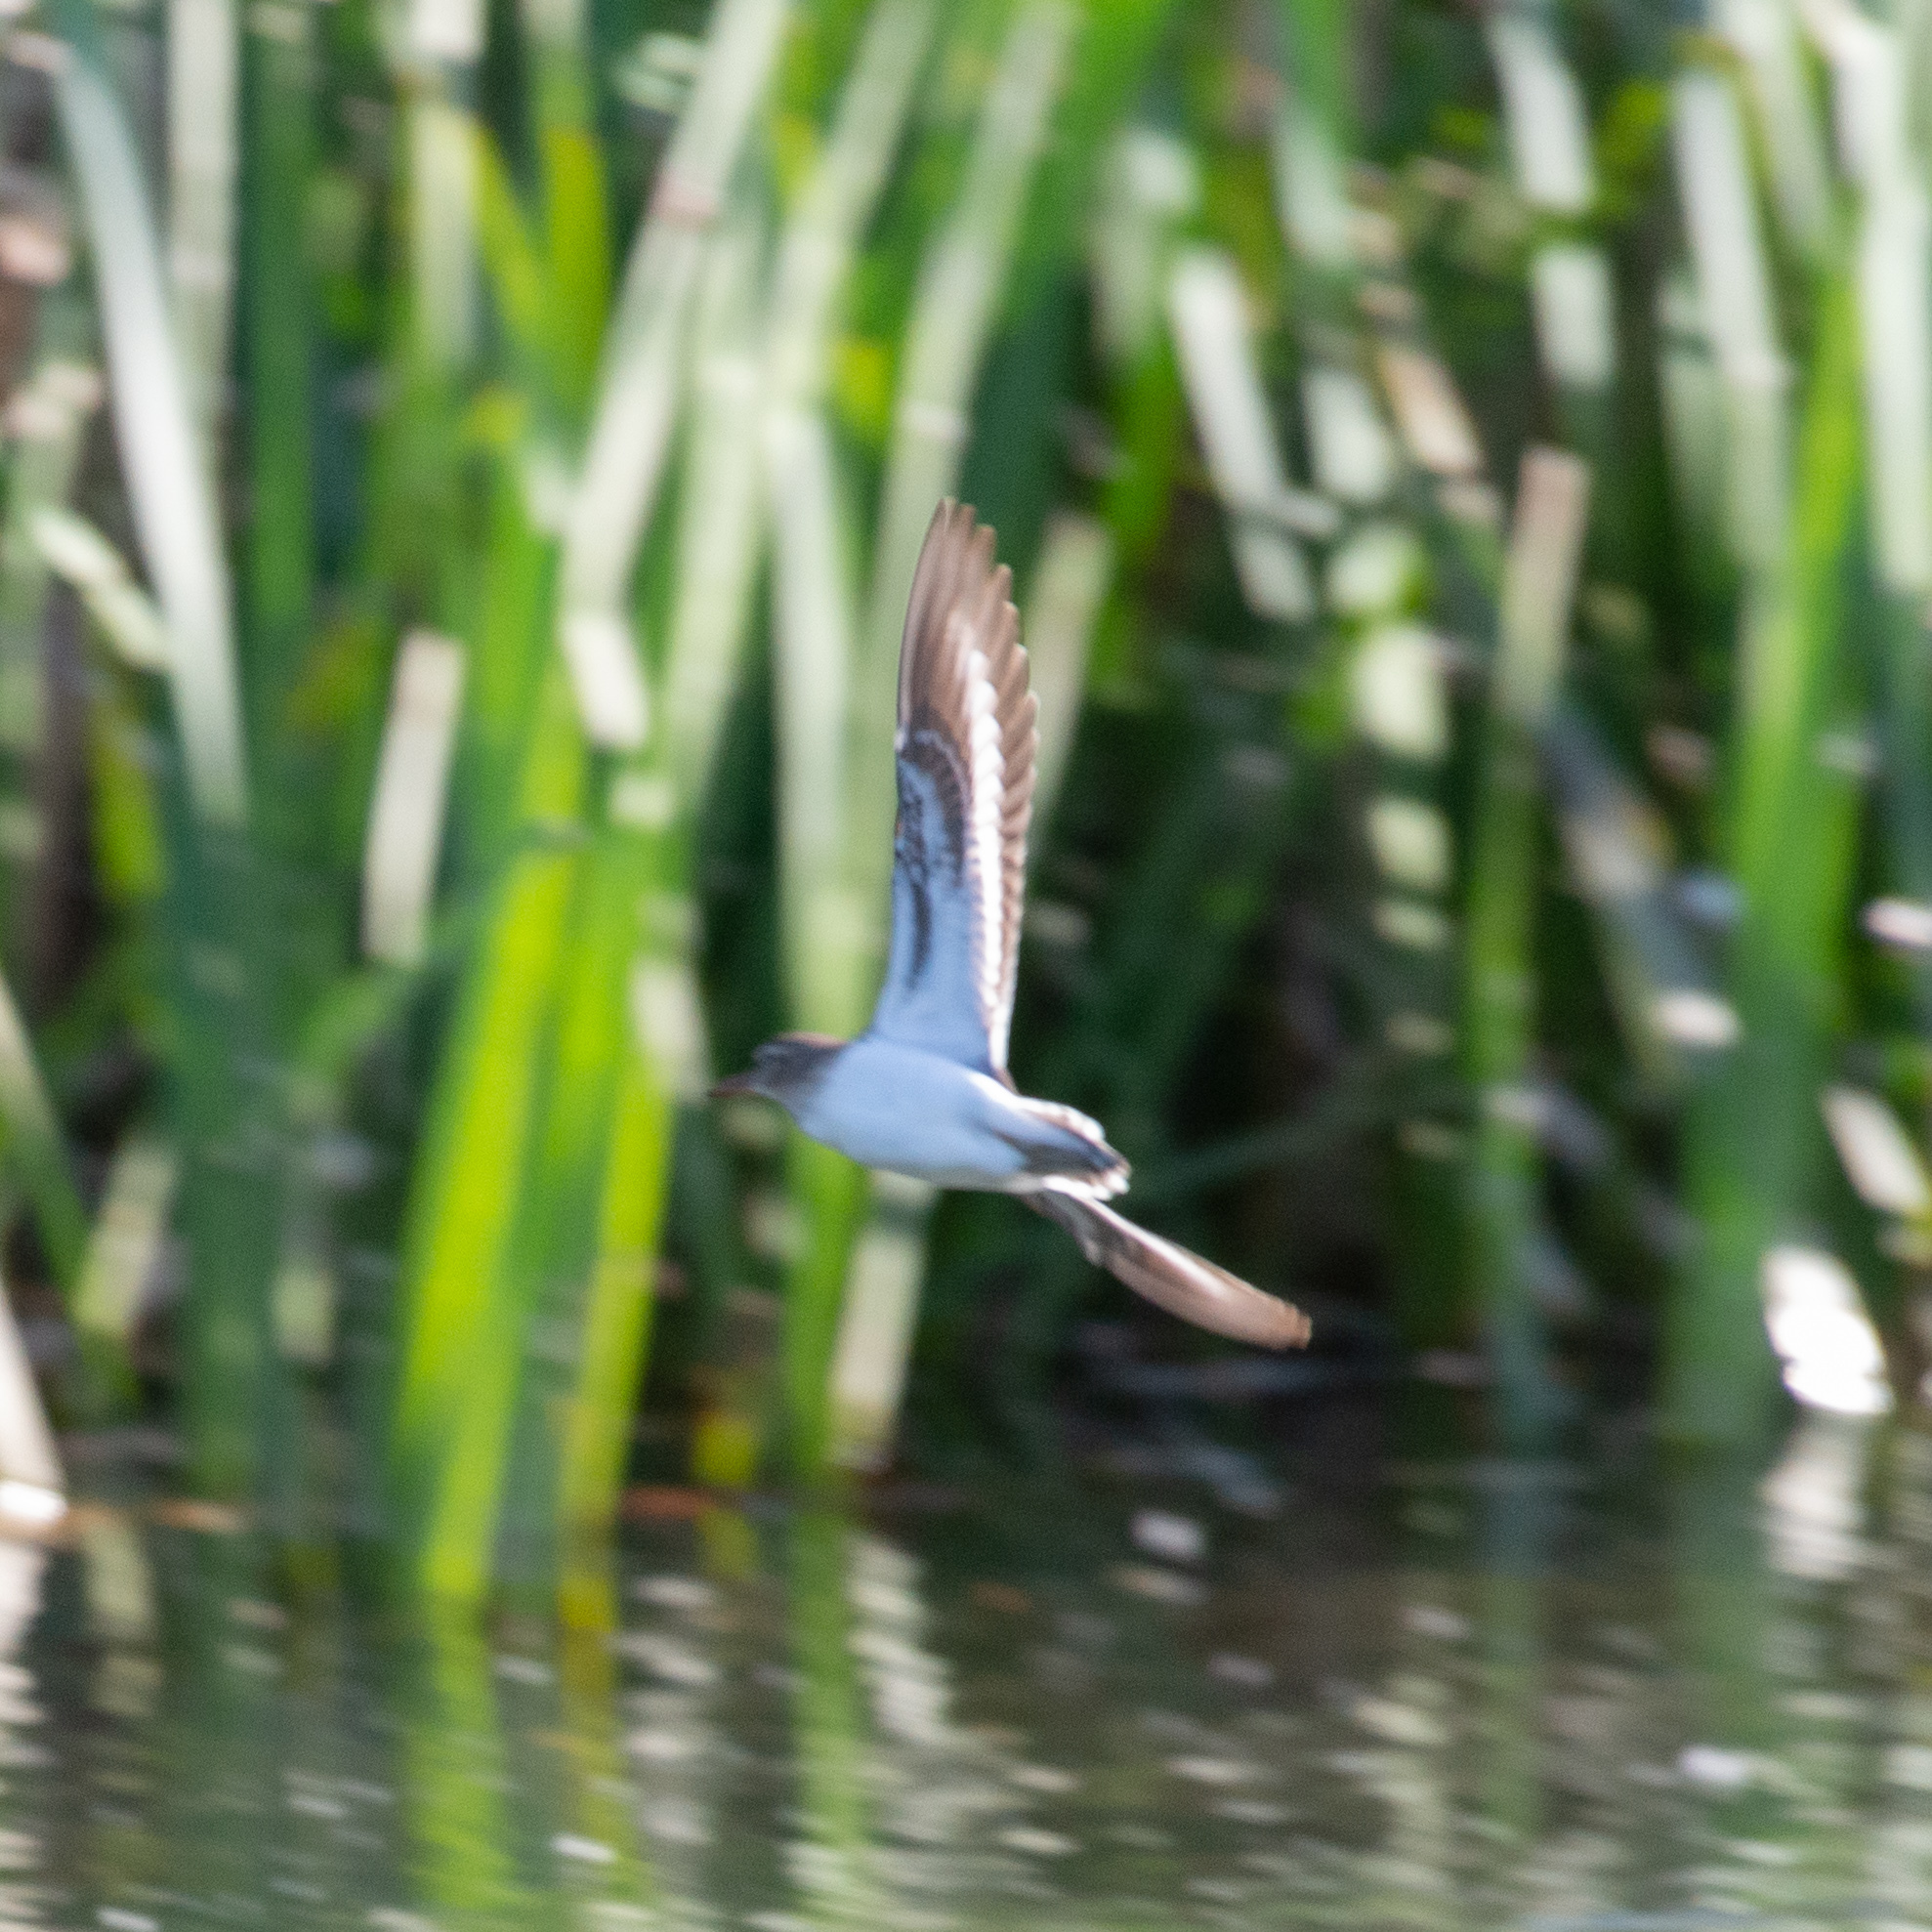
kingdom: Animalia
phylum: Chordata
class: Aves
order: Charadriiformes
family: Scolopacidae
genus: Actitis
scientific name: Actitis hypoleucos
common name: Common sandpiper
